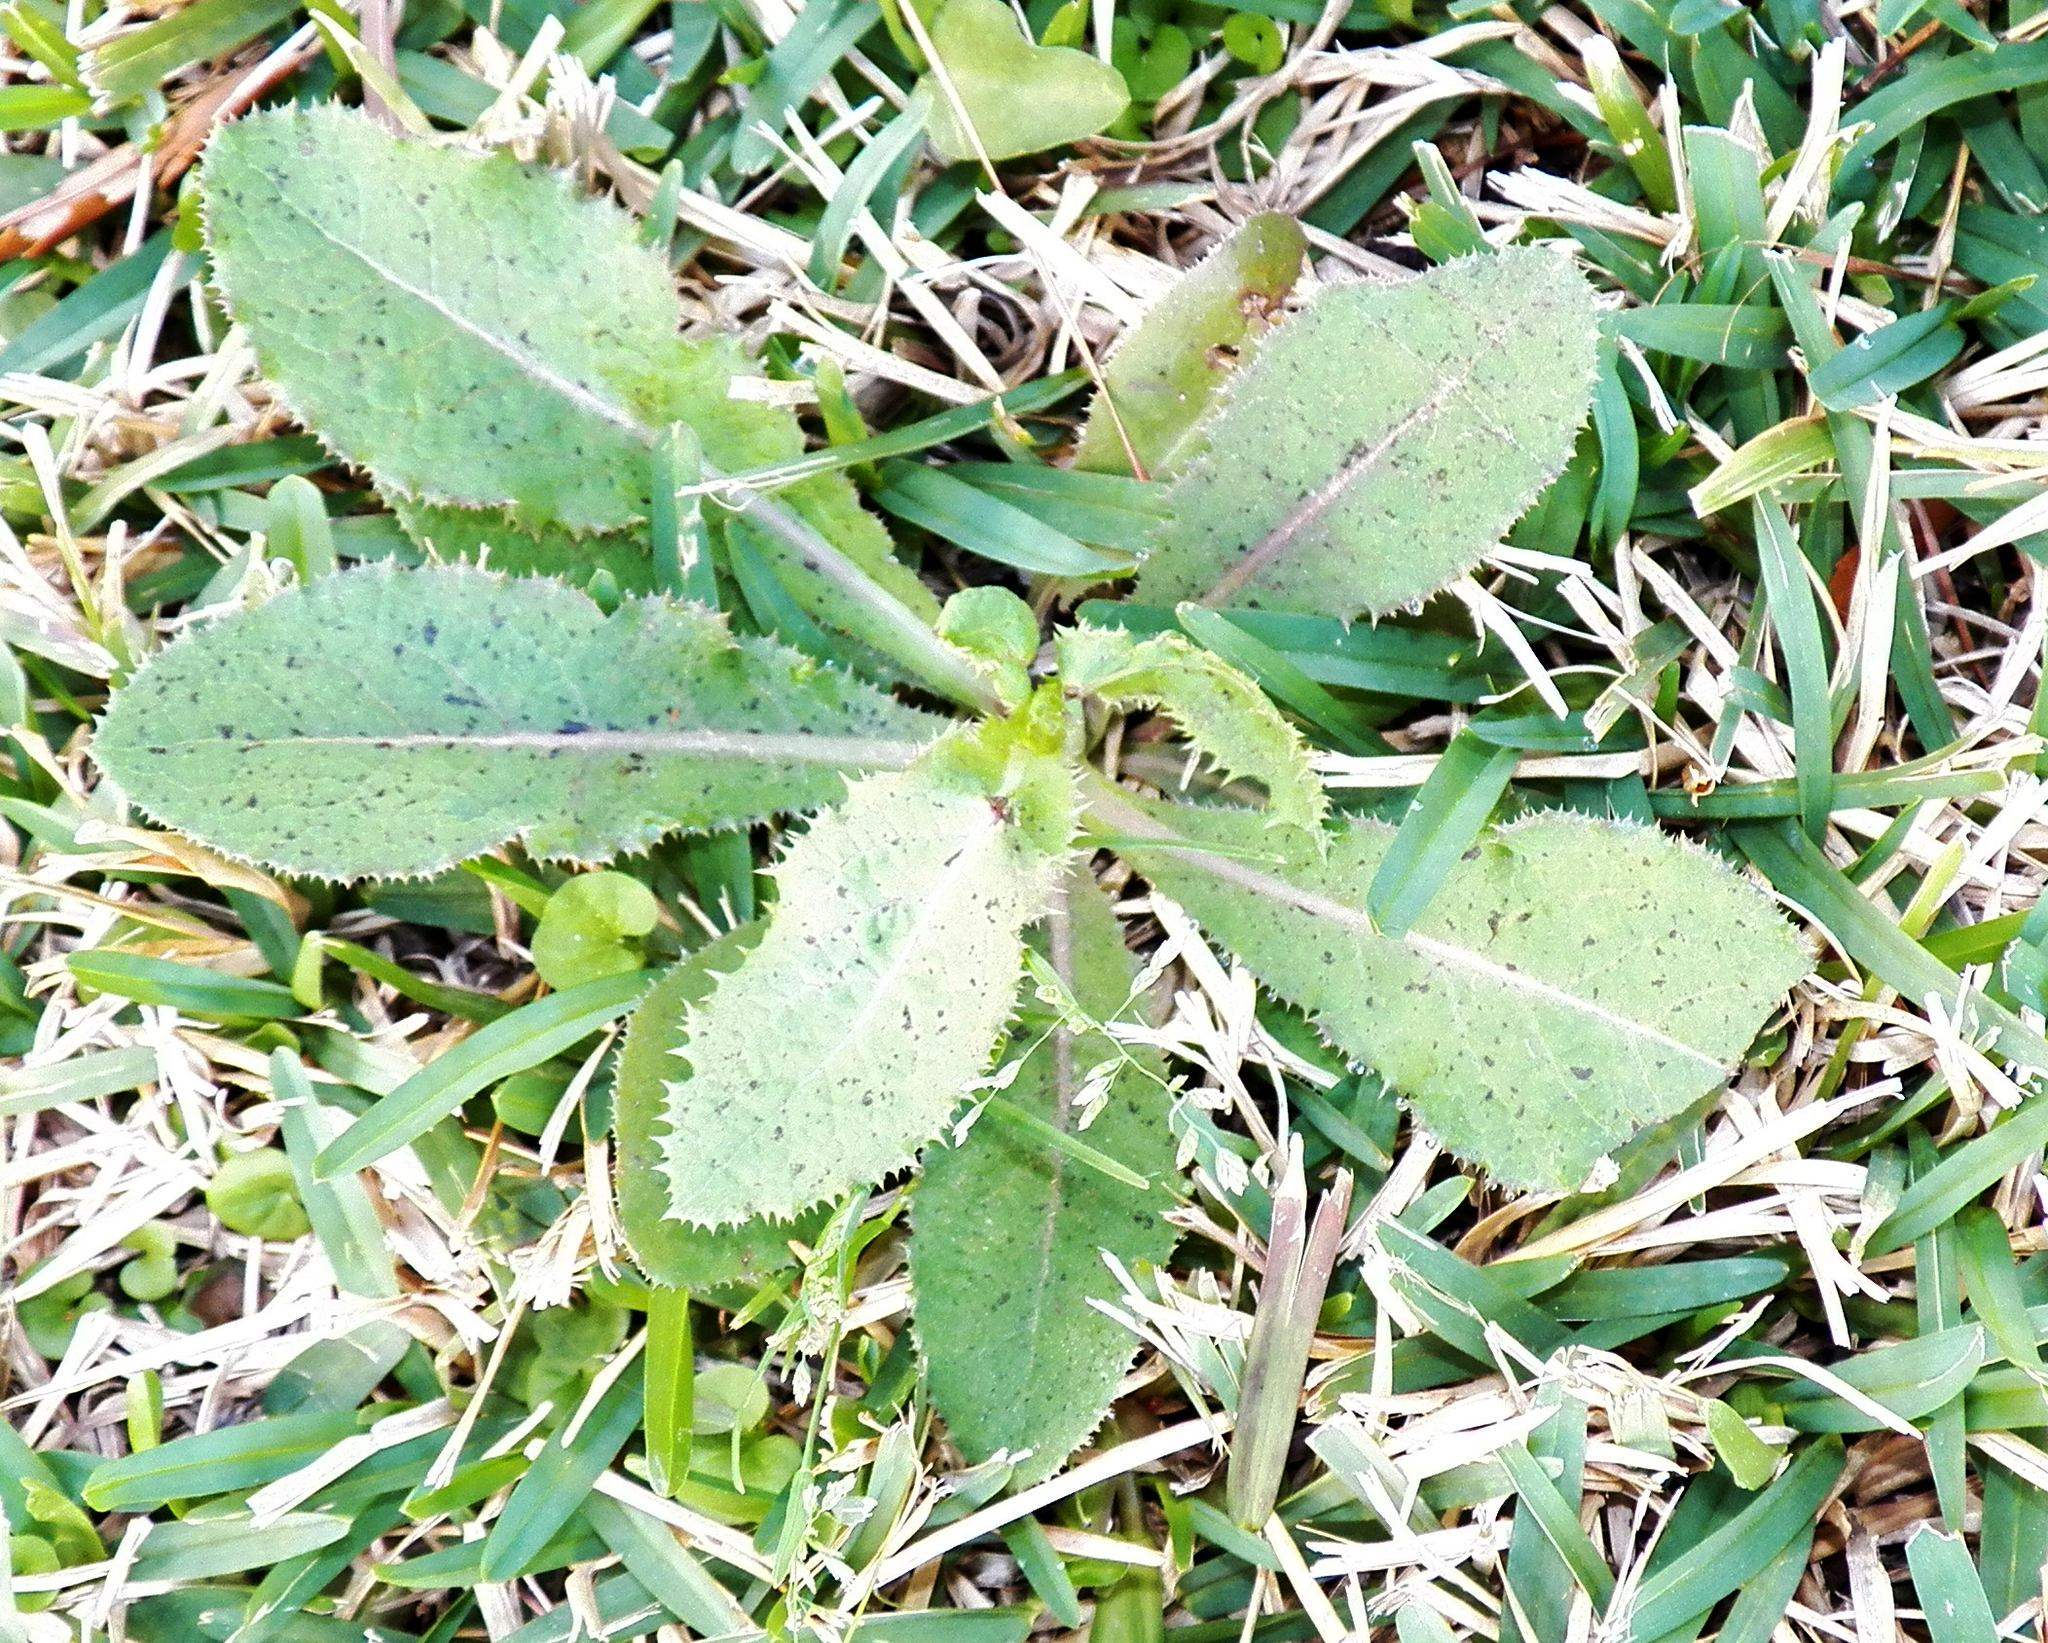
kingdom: Plantae
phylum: Tracheophyta
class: Magnoliopsida
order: Asterales
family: Asteraceae
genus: Sonchus
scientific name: Sonchus asper
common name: Prickly sow-thistle
